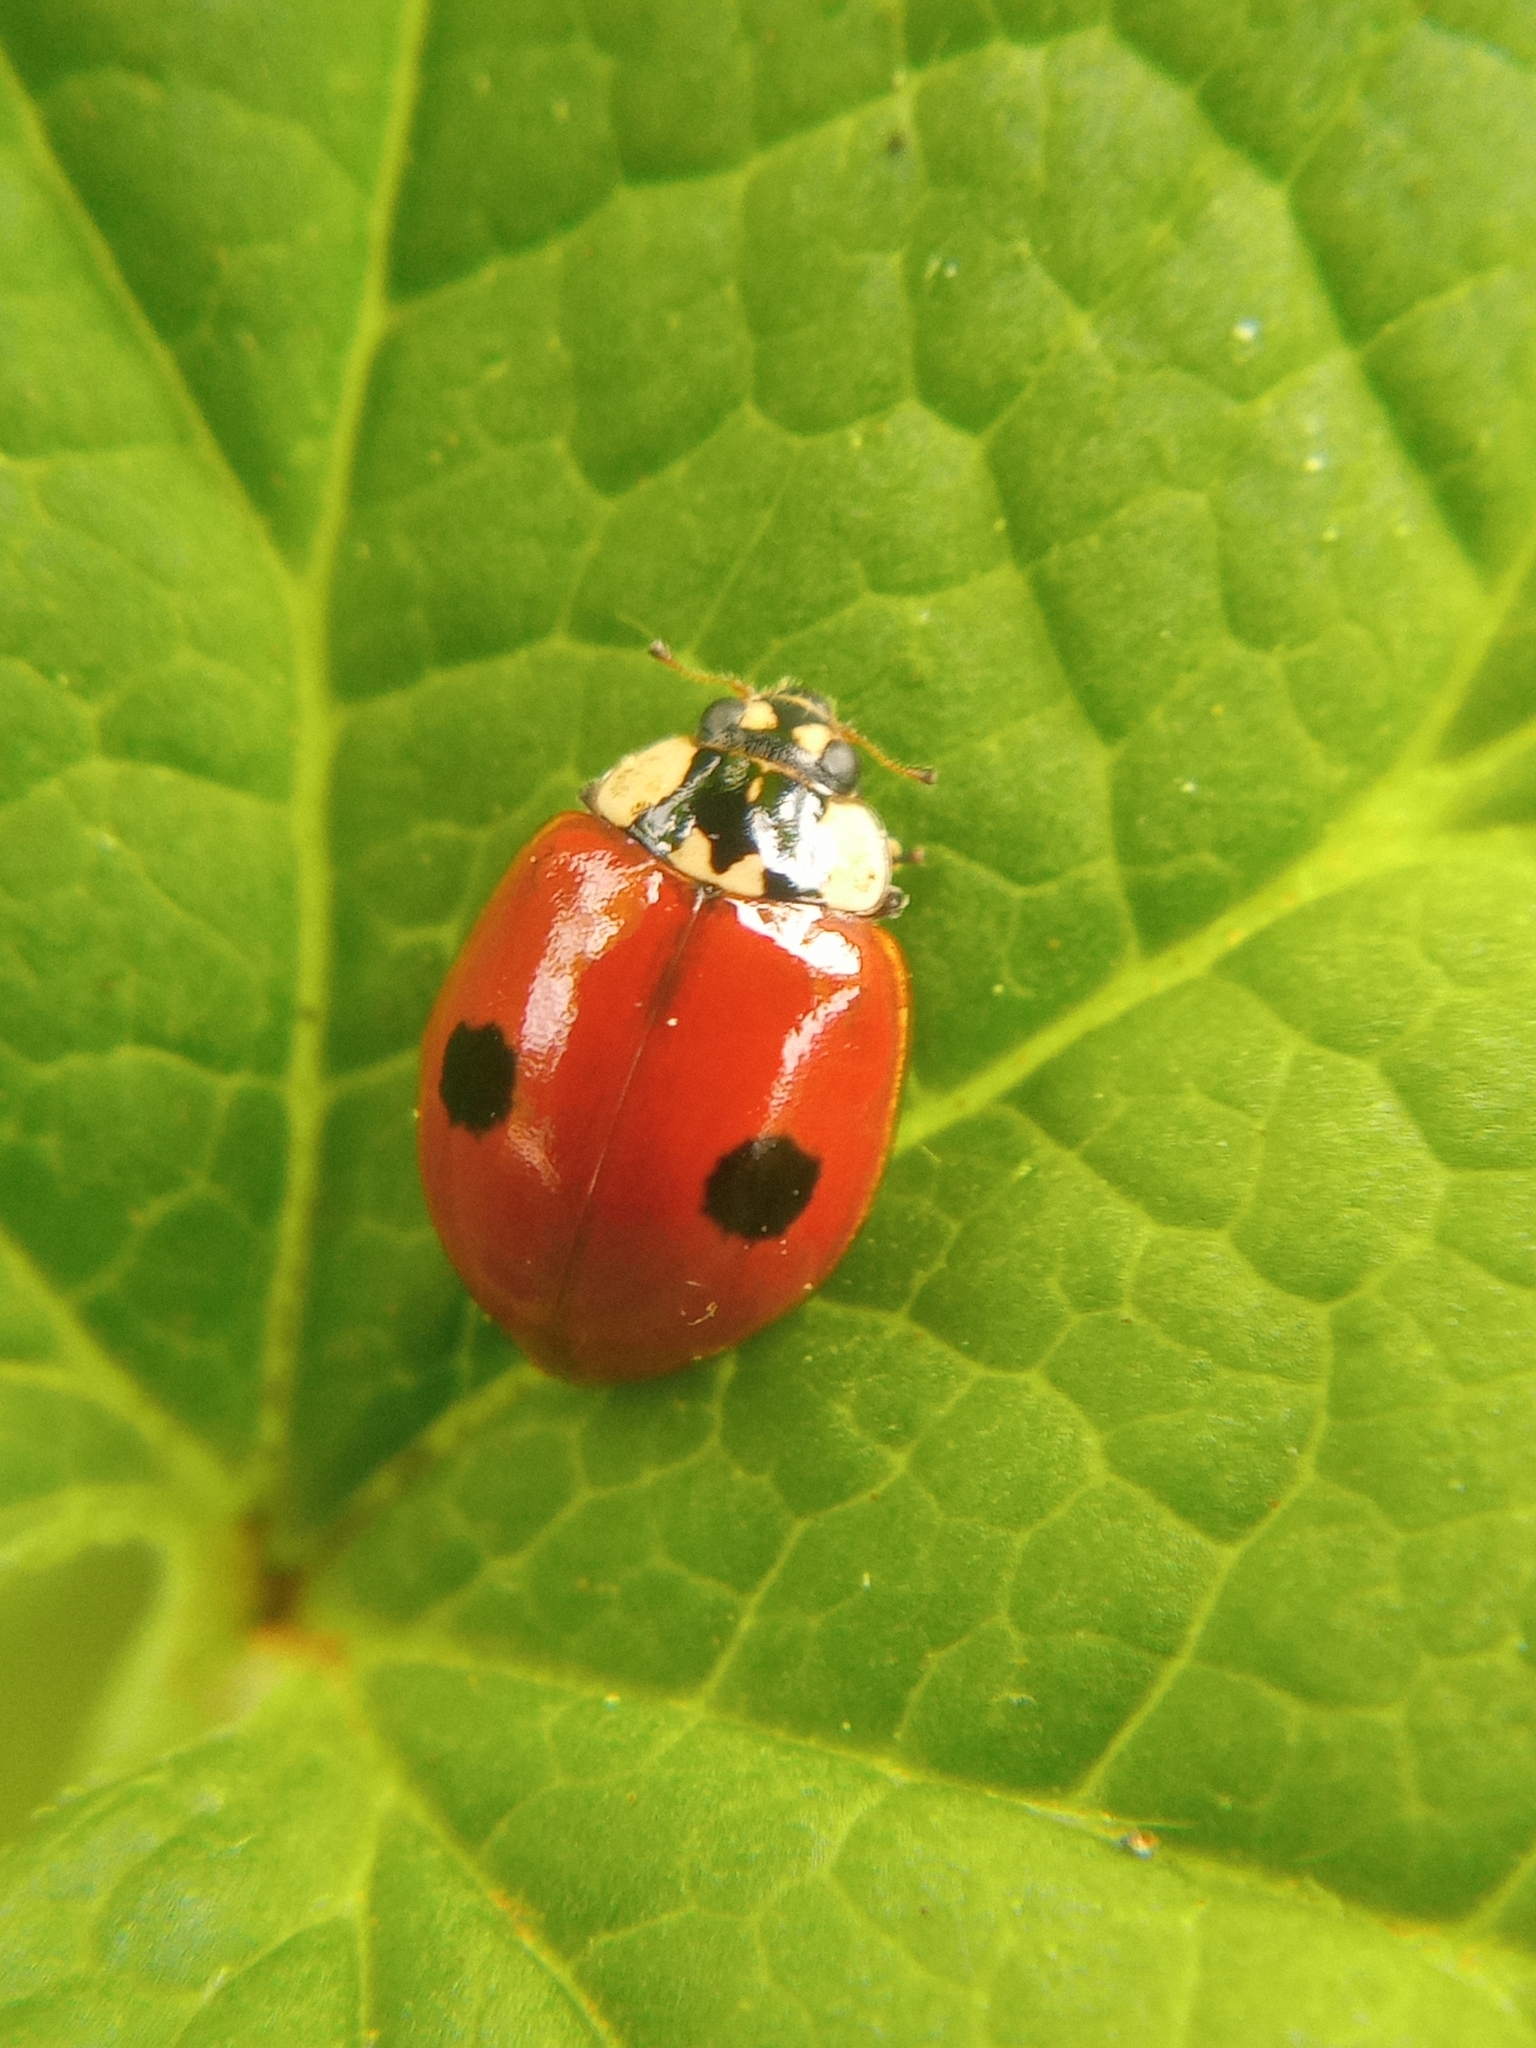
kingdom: Animalia
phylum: Arthropoda
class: Insecta
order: Coleoptera
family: Coccinellidae
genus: Adalia
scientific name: Adalia bipunctata
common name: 2-spot ladybird
